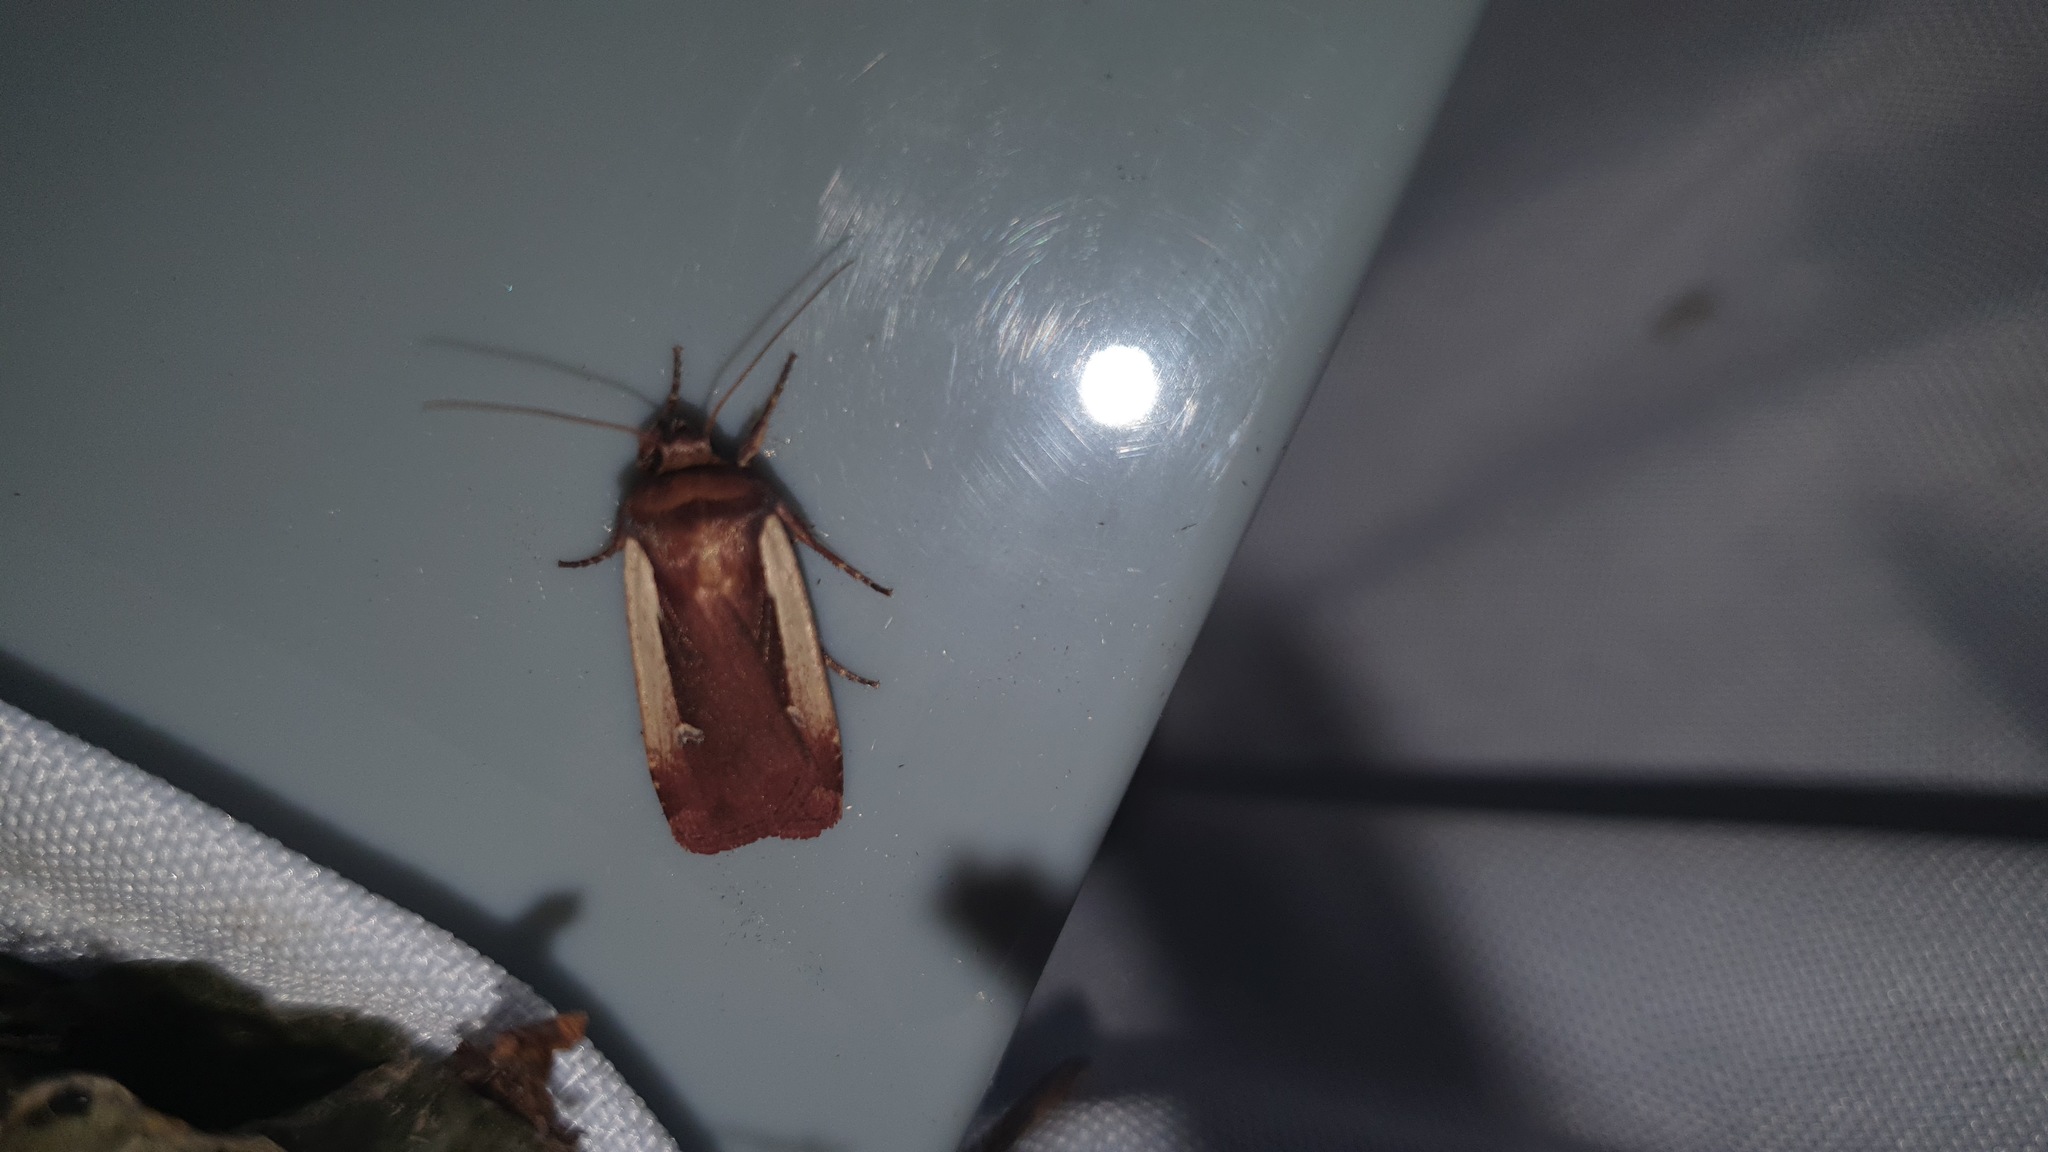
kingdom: Animalia
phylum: Arthropoda
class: Insecta
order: Lepidoptera
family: Noctuidae
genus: Ochropleura
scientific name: Ochropleura plecta
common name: Flame shoulder
